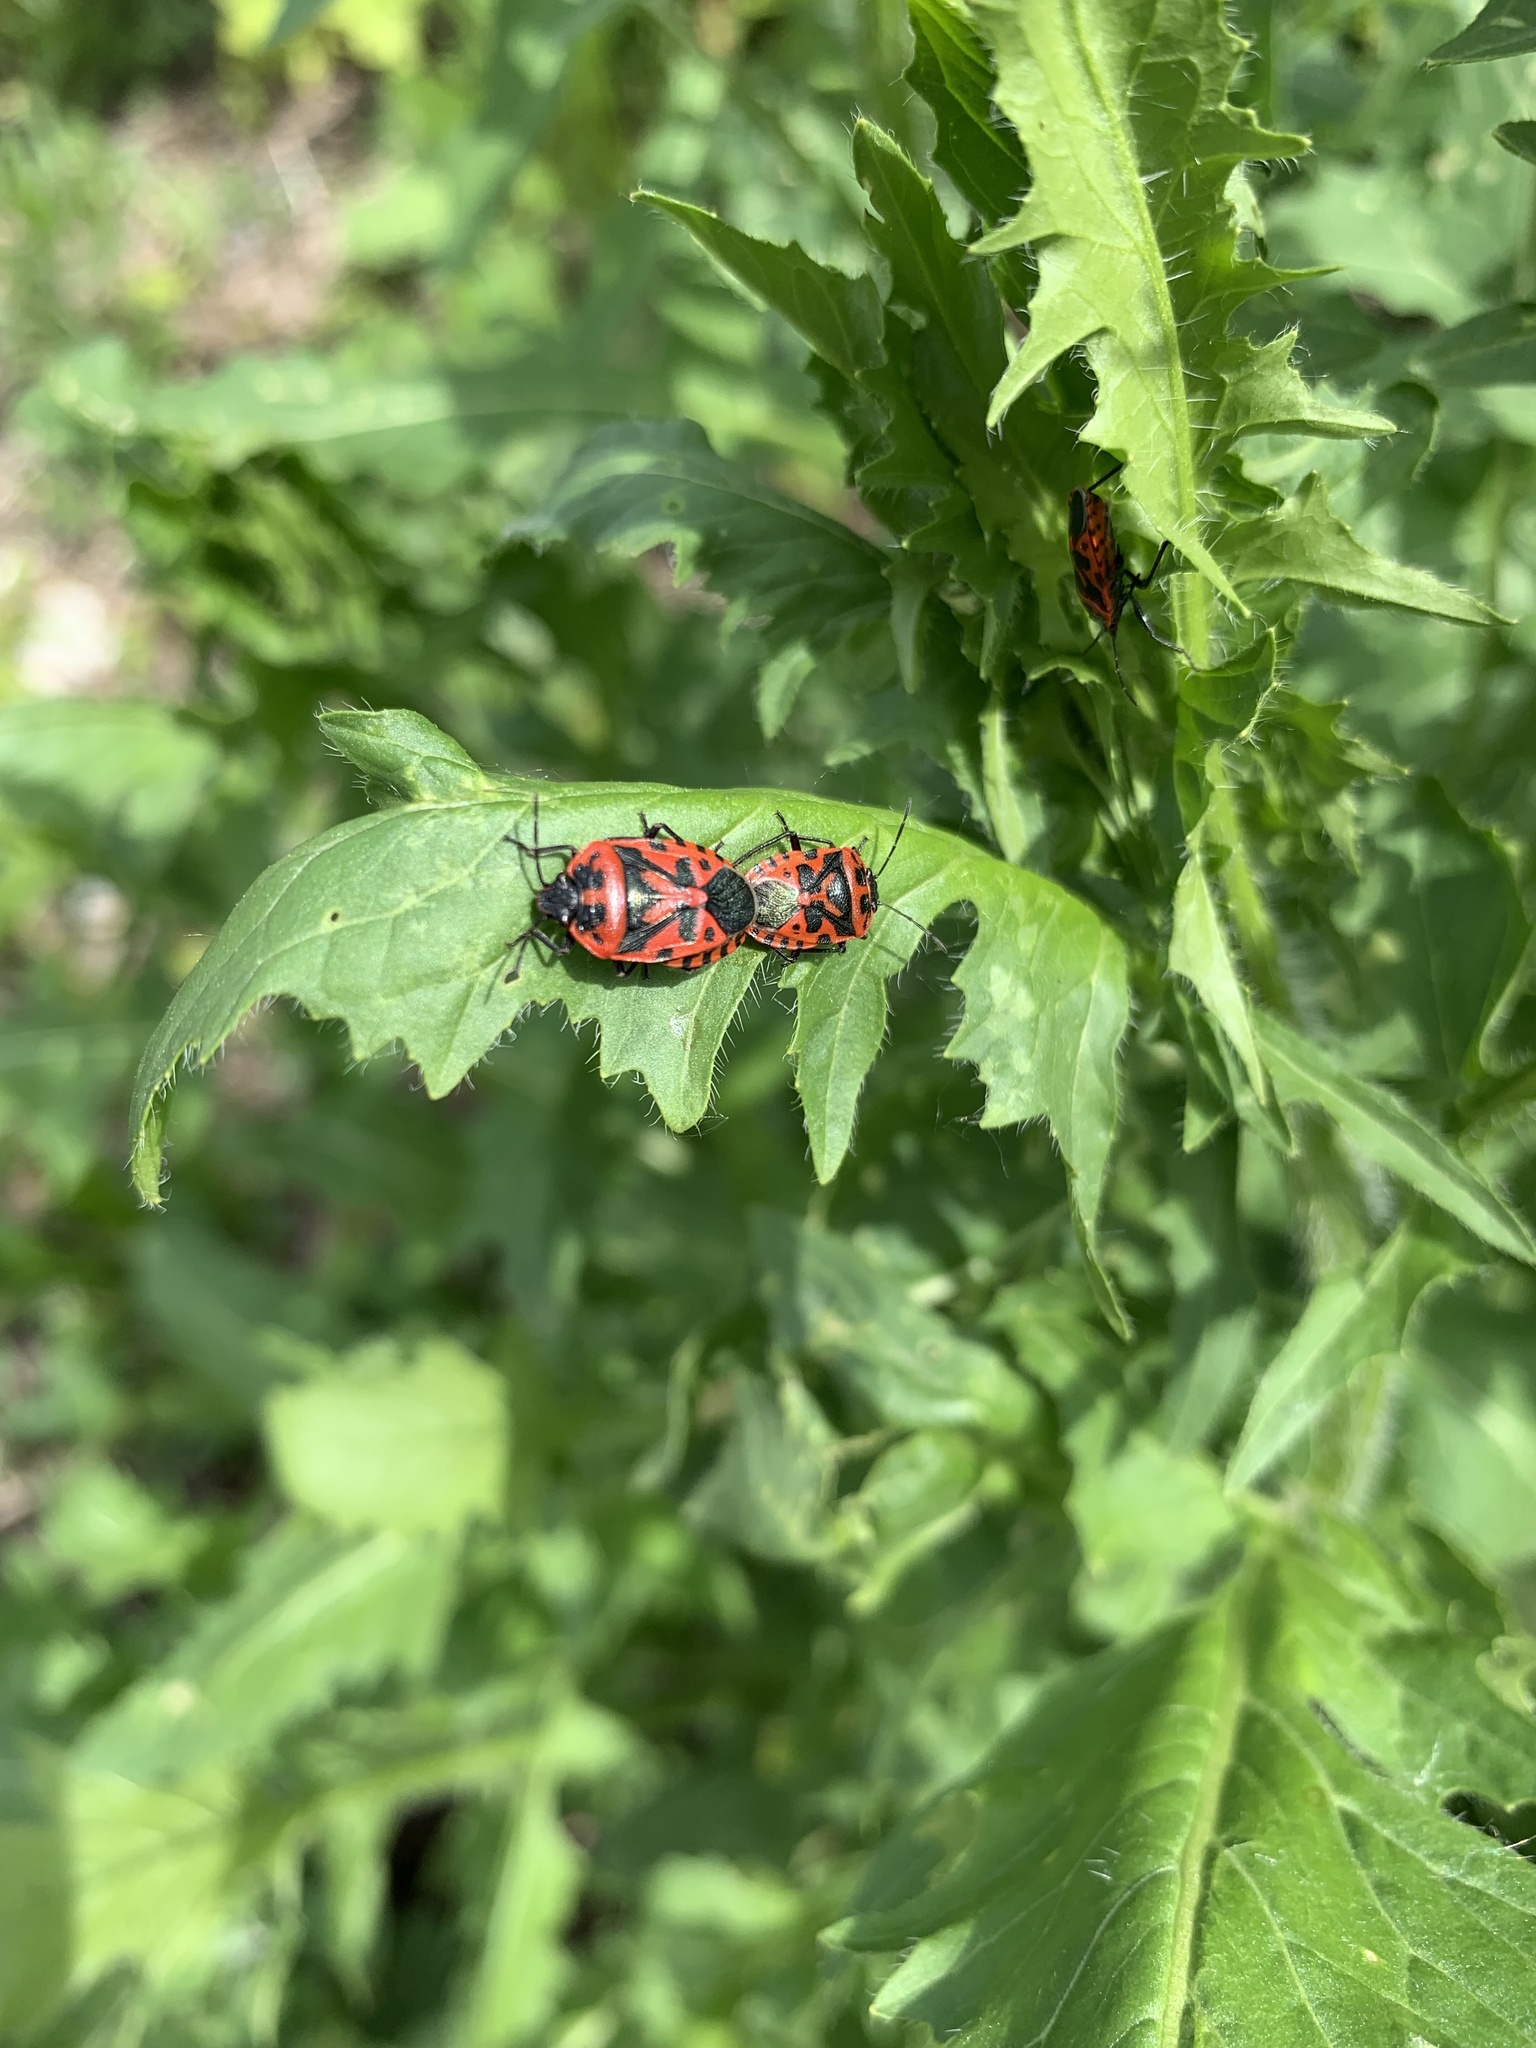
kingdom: Animalia
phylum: Arthropoda
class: Insecta
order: Hemiptera
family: Pentatomidae
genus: Eurydema
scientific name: Eurydema ventralis
